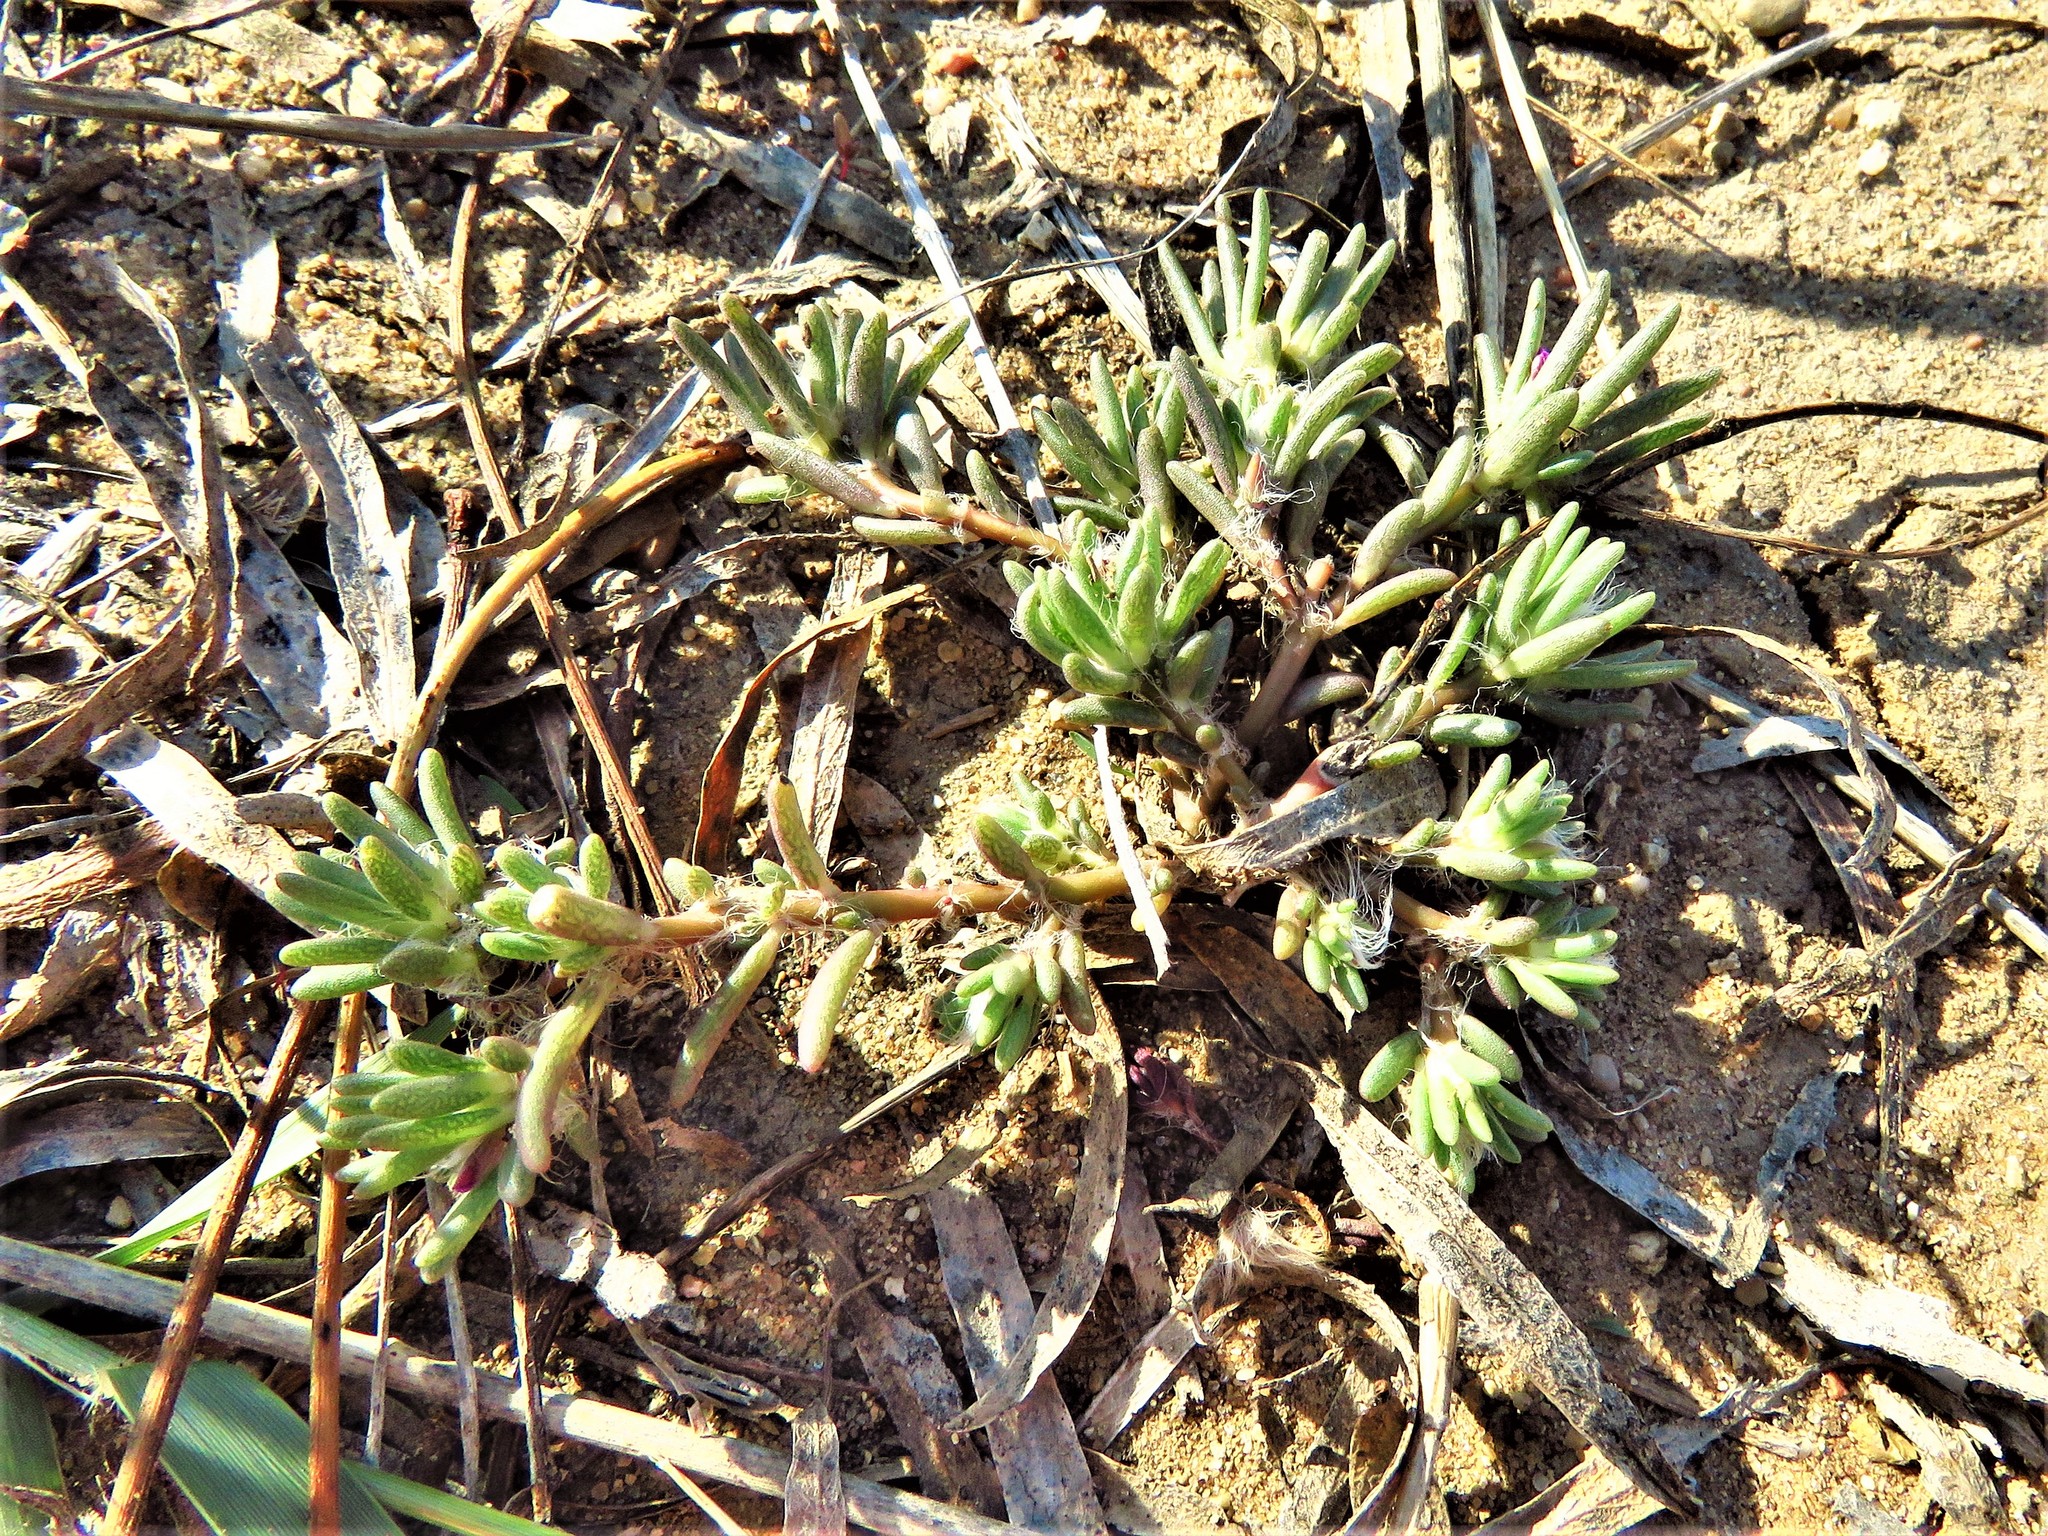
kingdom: Plantae
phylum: Tracheophyta
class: Magnoliopsida
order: Caryophyllales
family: Portulacaceae
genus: Portulaca
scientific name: Portulaca pilosa
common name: Kiss me quick
